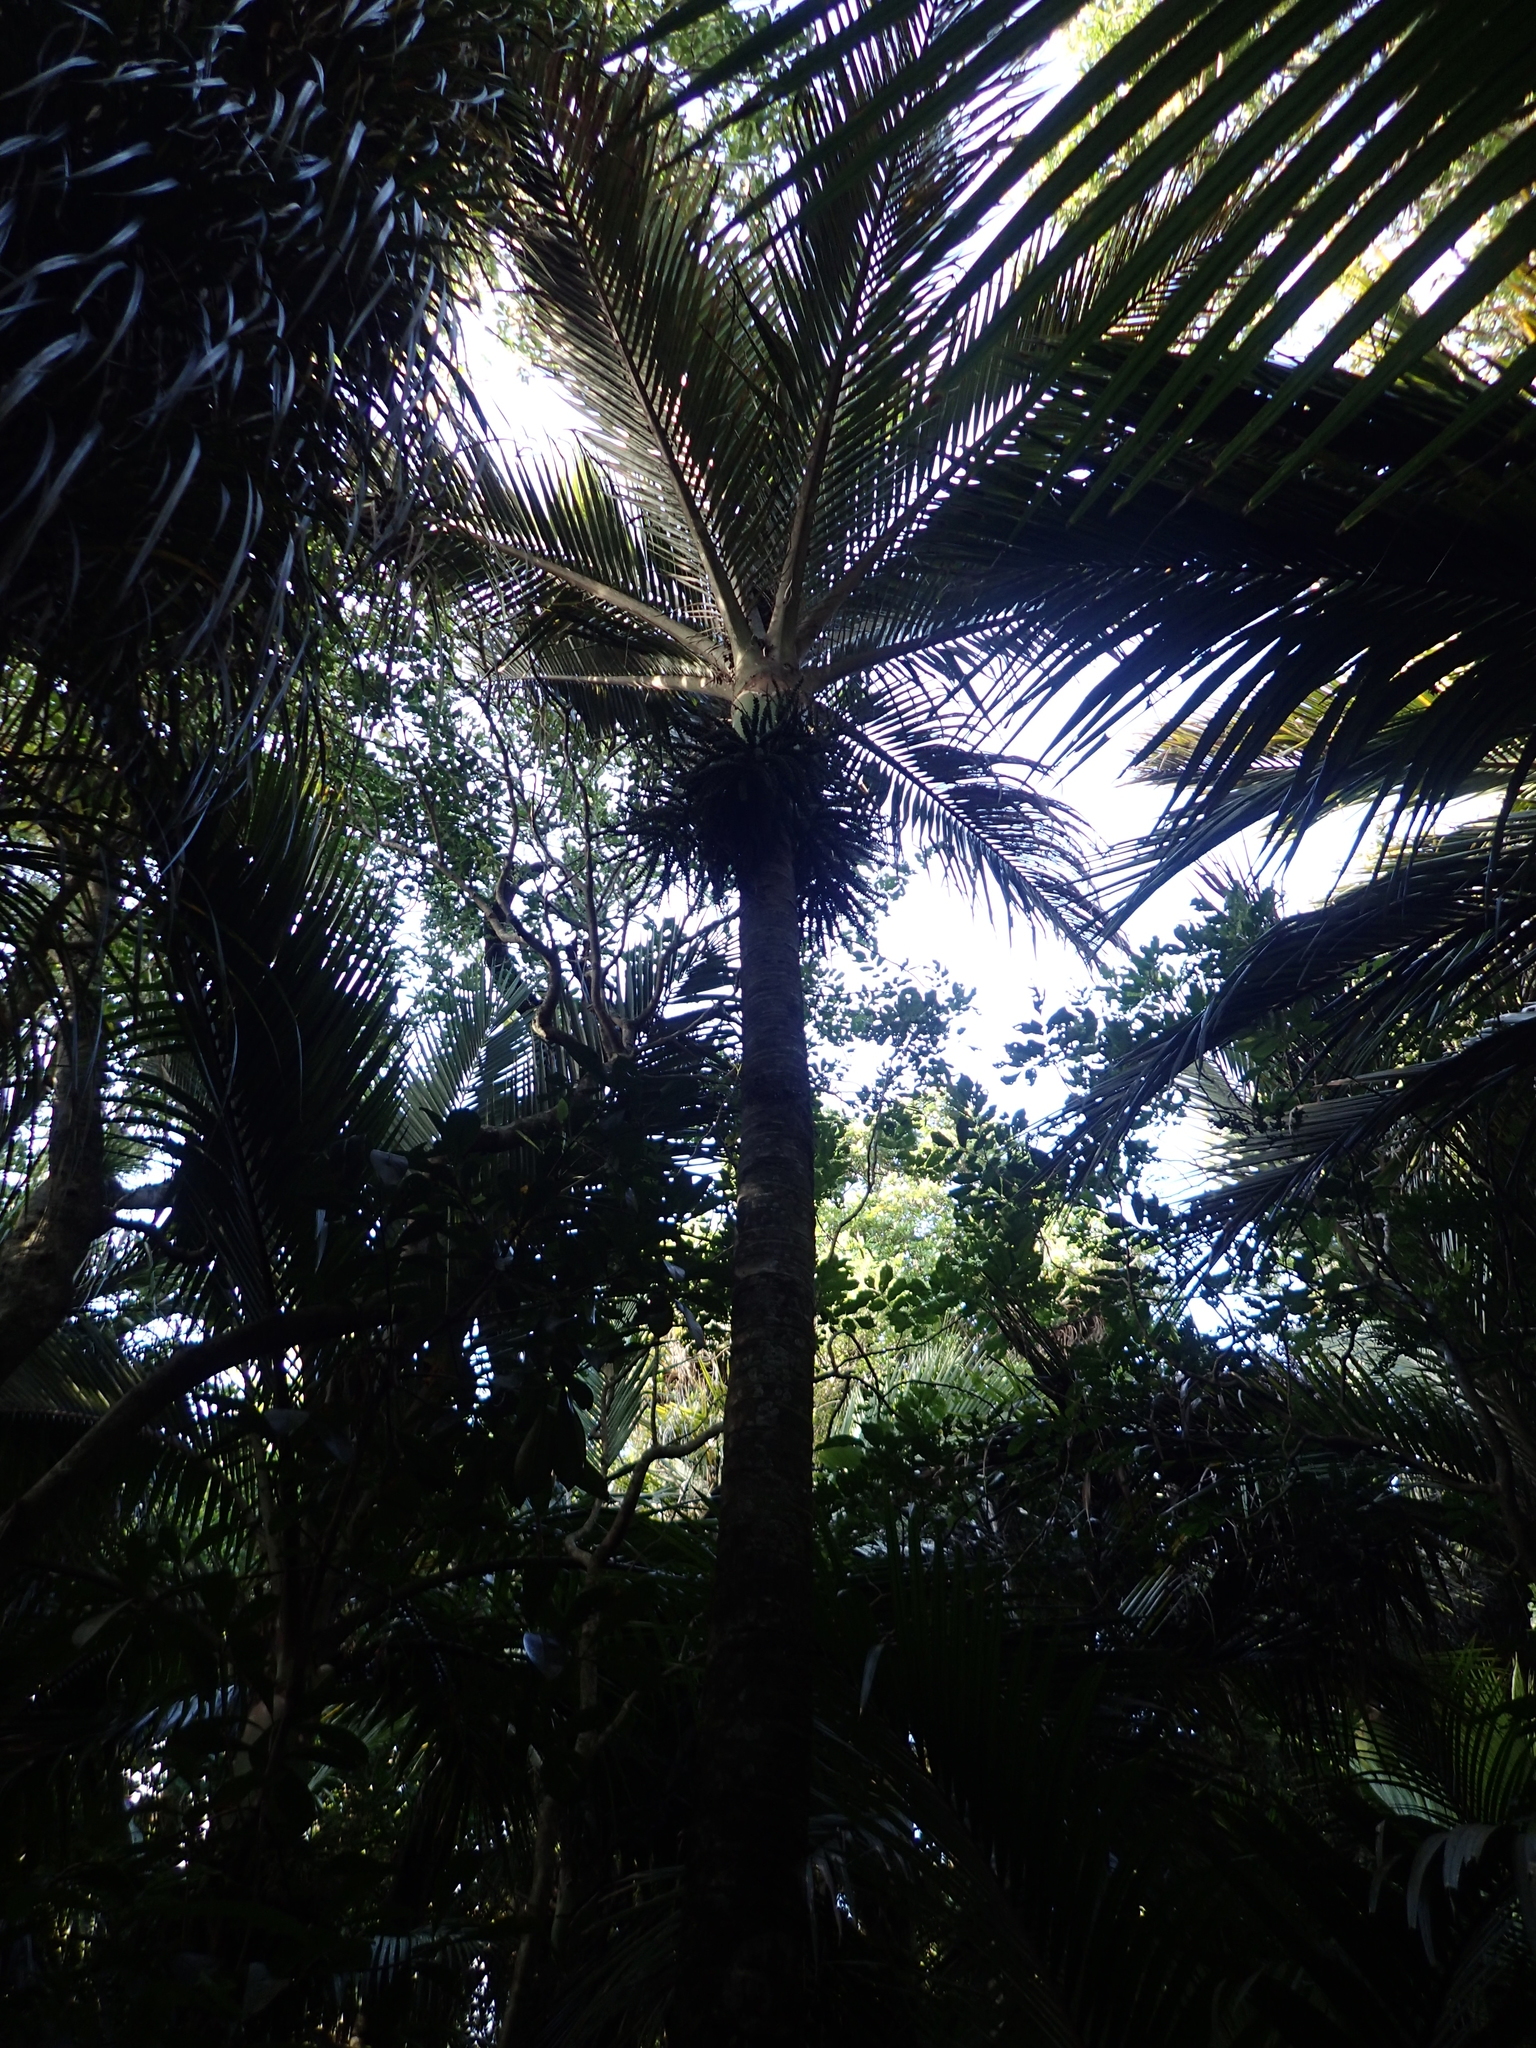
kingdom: Plantae
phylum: Tracheophyta
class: Liliopsida
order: Arecales
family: Arecaceae
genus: Rhopalostylis
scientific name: Rhopalostylis sapida
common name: Feather-duster palm
